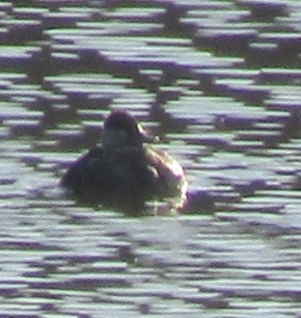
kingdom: Animalia
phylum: Chordata
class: Aves
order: Anseriformes
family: Anatidae
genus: Oxyura
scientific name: Oxyura jamaicensis
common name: Ruddy duck
